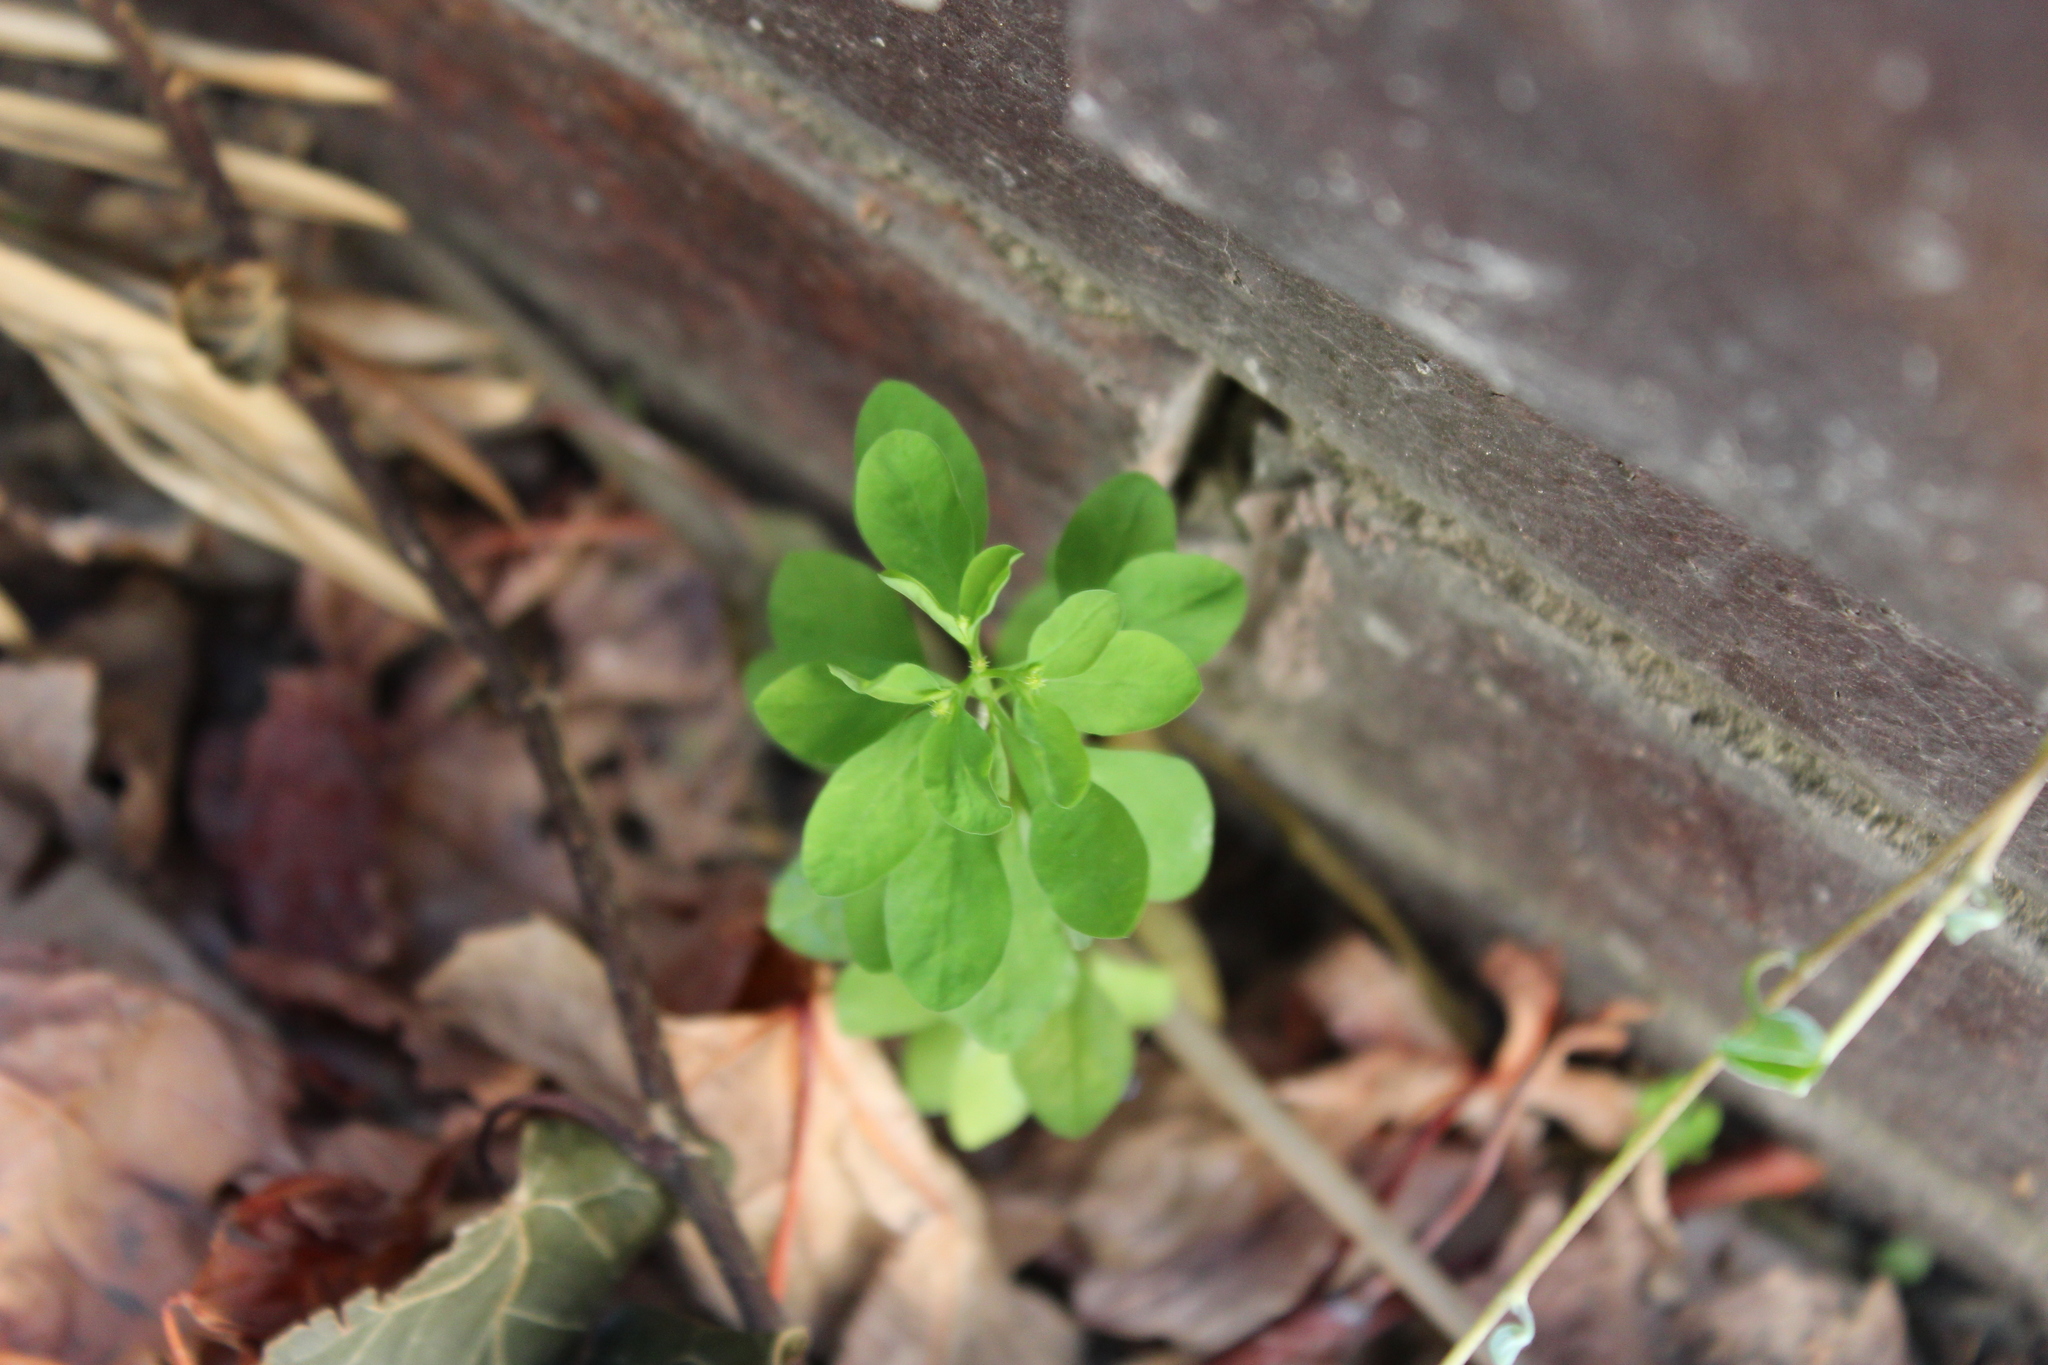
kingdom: Plantae
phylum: Tracheophyta
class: Magnoliopsida
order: Malpighiales
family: Euphorbiaceae
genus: Euphorbia
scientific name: Euphorbia peplus
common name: Petty spurge
